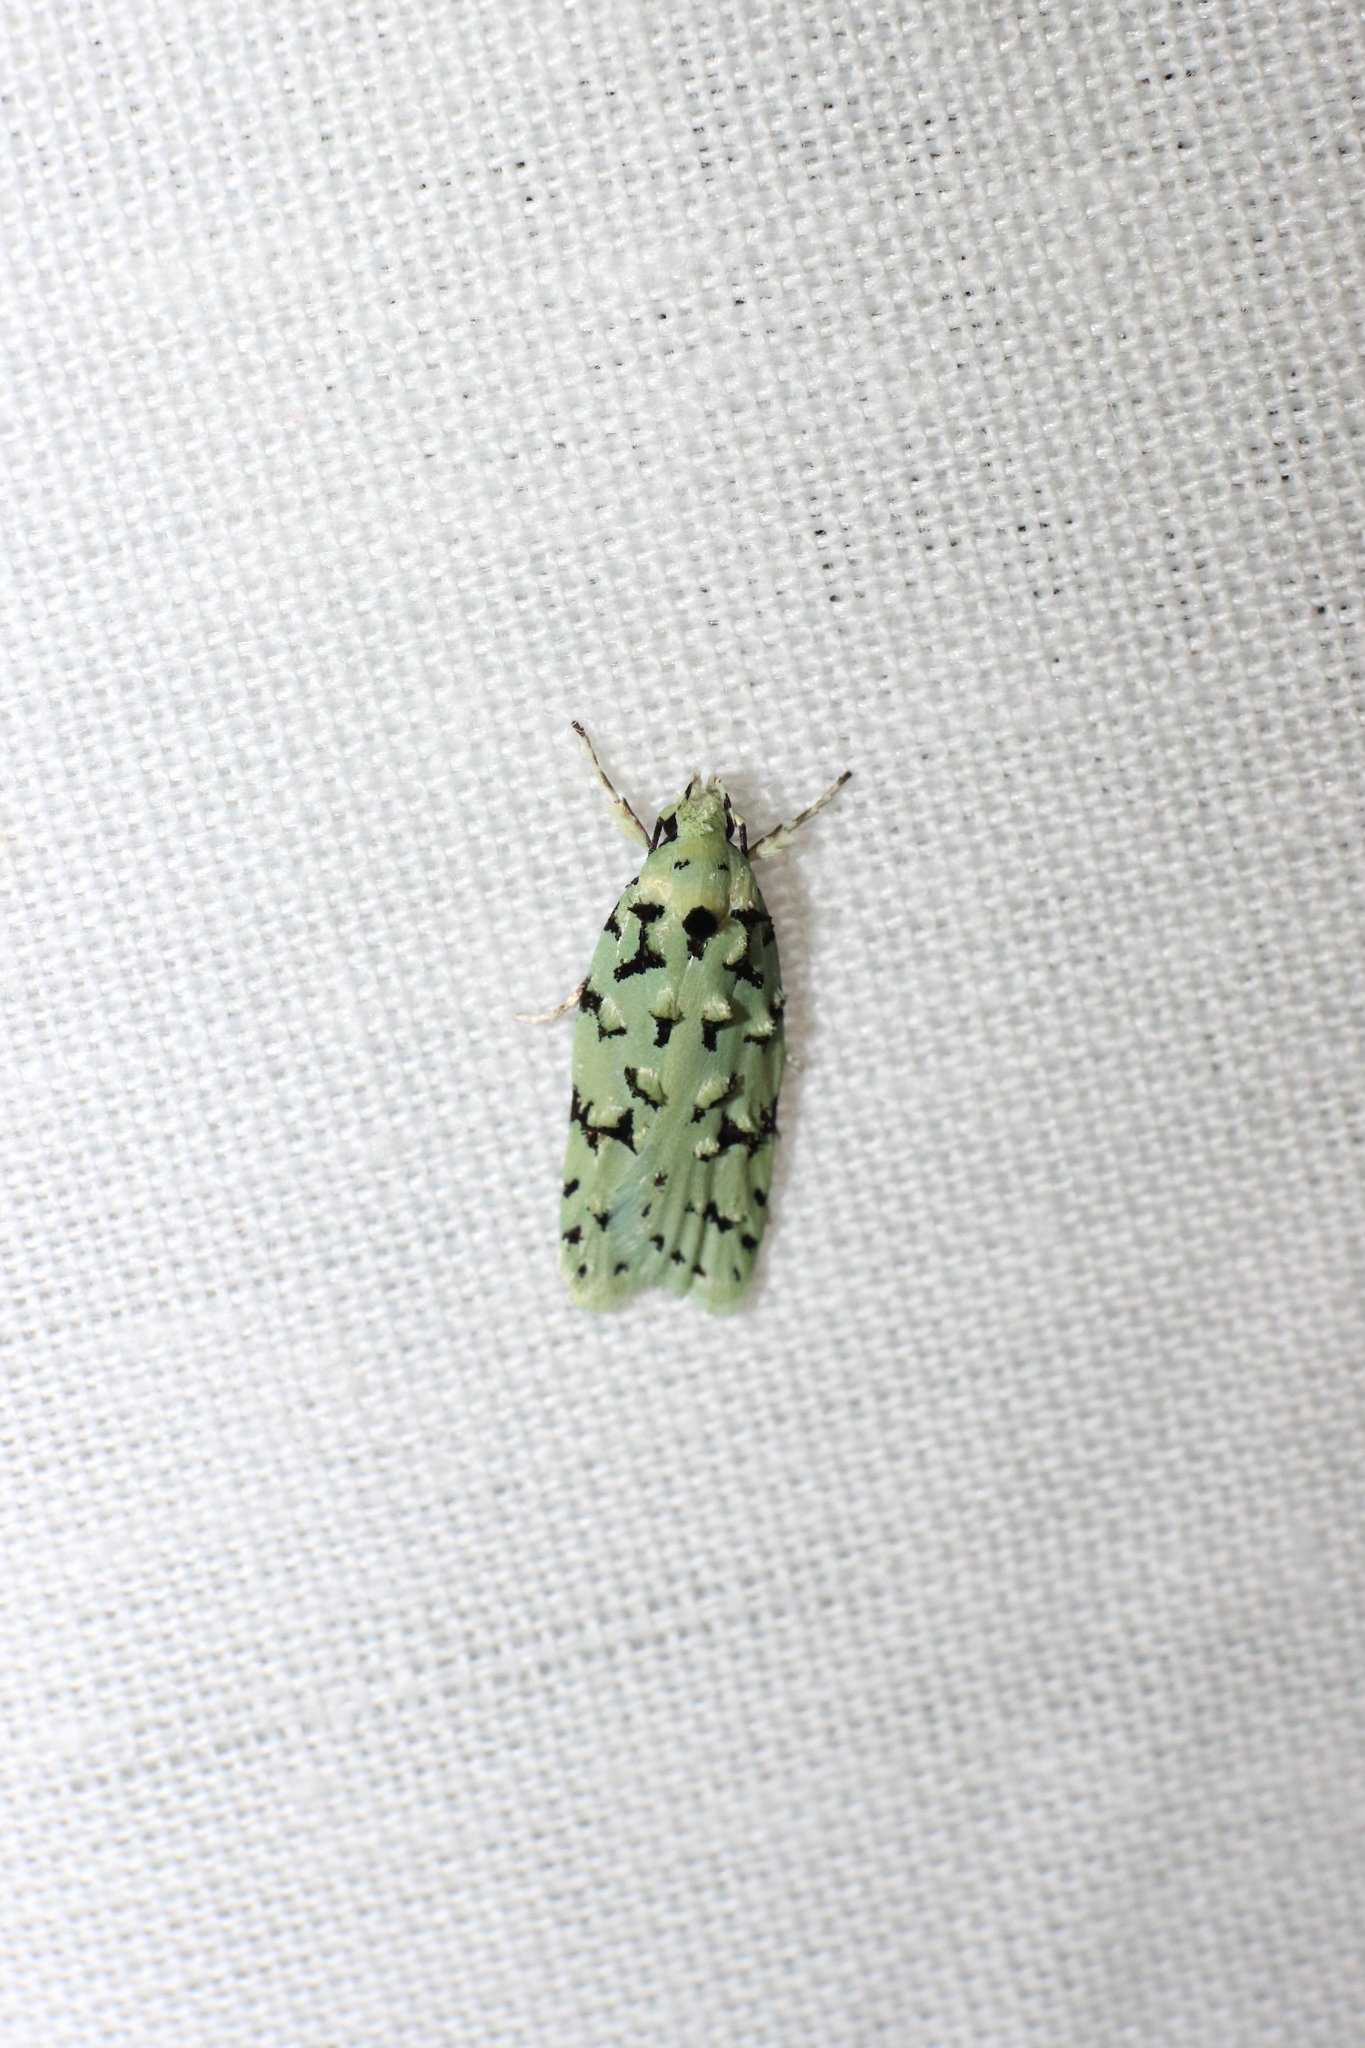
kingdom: Animalia
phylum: Arthropoda
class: Insecta
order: Lepidoptera
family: Oecophoridae
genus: Izatha
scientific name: Izatha peroneanella
